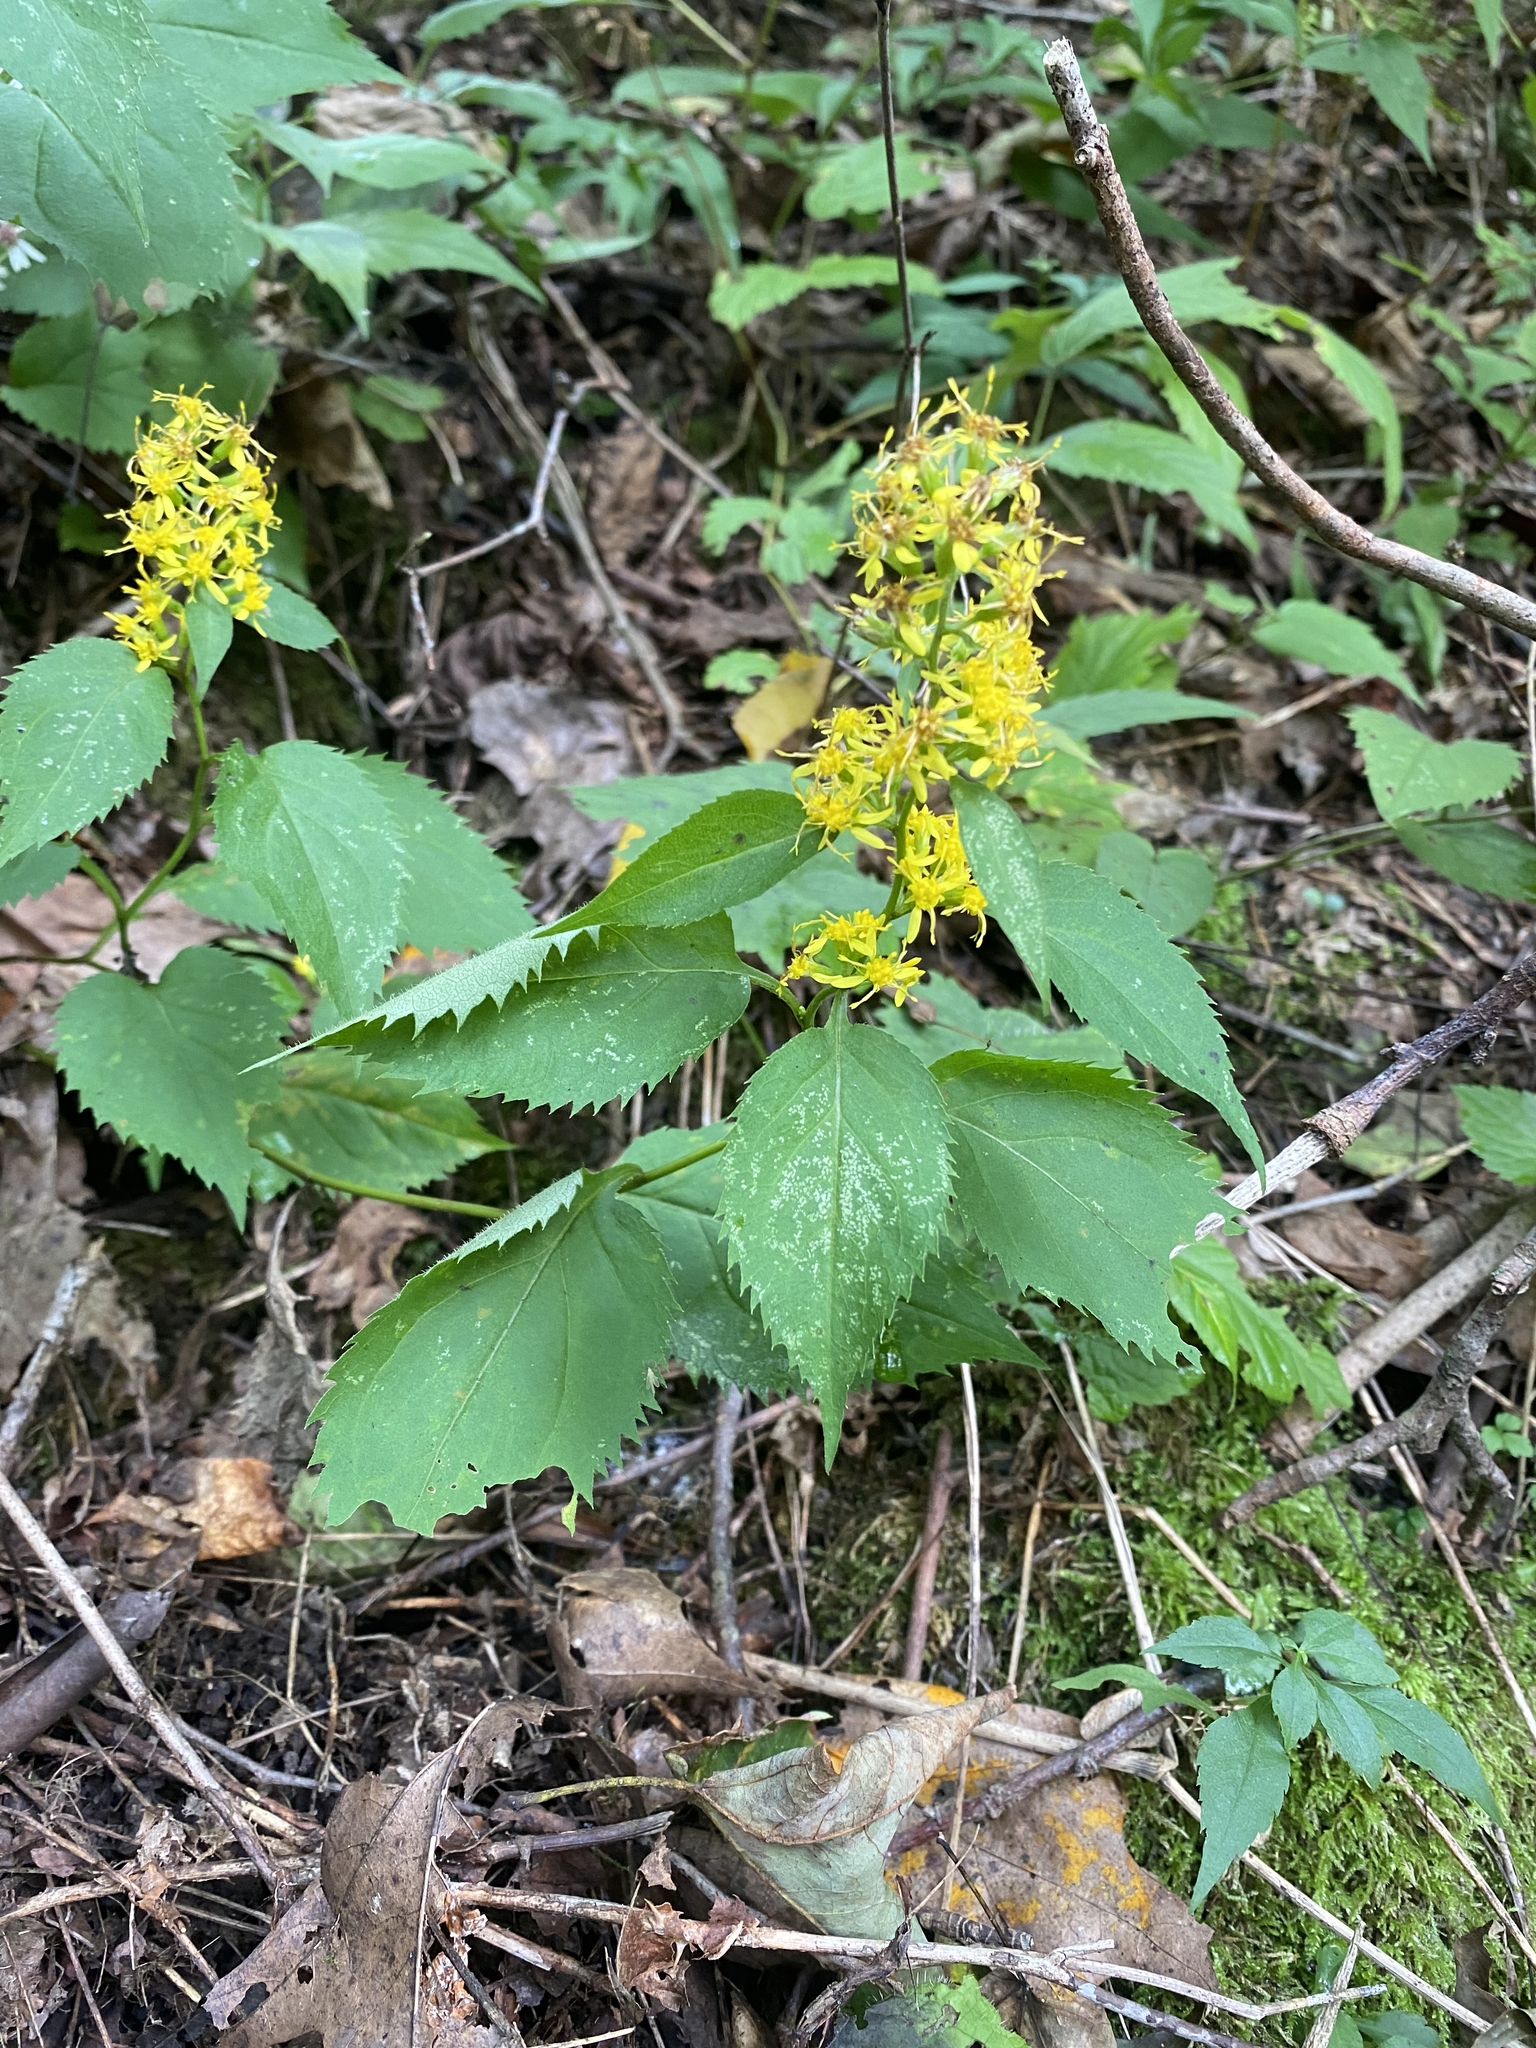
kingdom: Plantae
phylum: Tracheophyta
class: Magnoliopsida
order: Asterales
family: Asteraceae
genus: Solidago
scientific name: Solidago flexicaulis
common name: Zig-zag goldenrod
